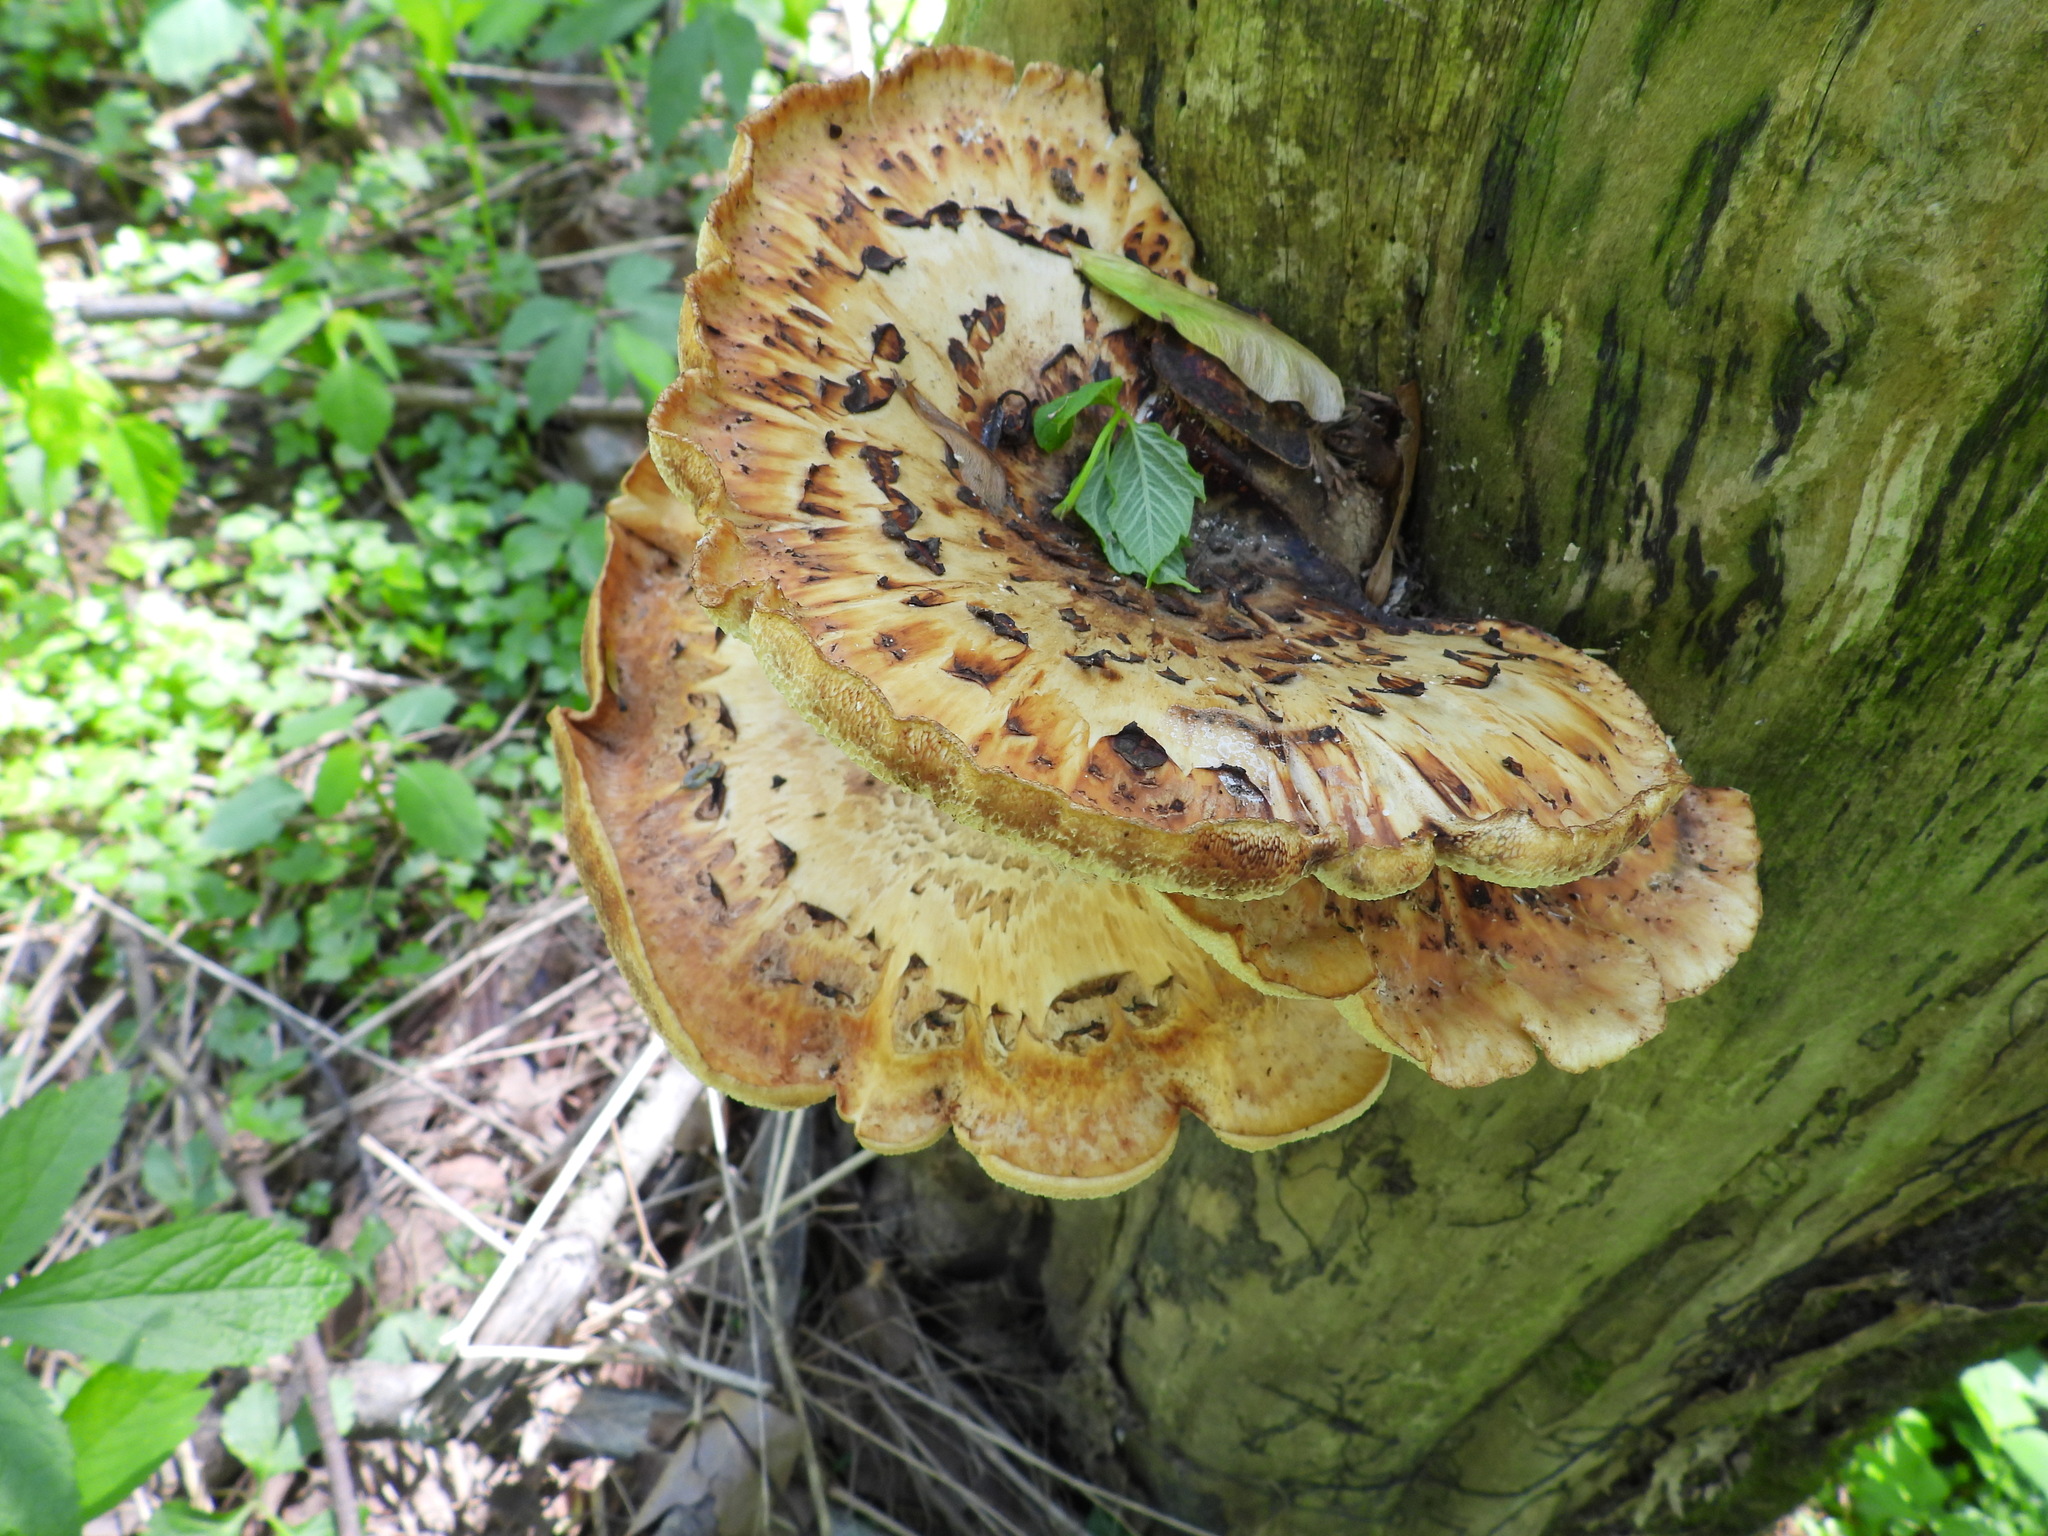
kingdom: Fungi
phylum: Basidiomycota
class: Agaricomycetes
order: Polyporales
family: Polyporaceae
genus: Cerioporus
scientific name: Cerioporus squamosus
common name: Dryad's saddle
